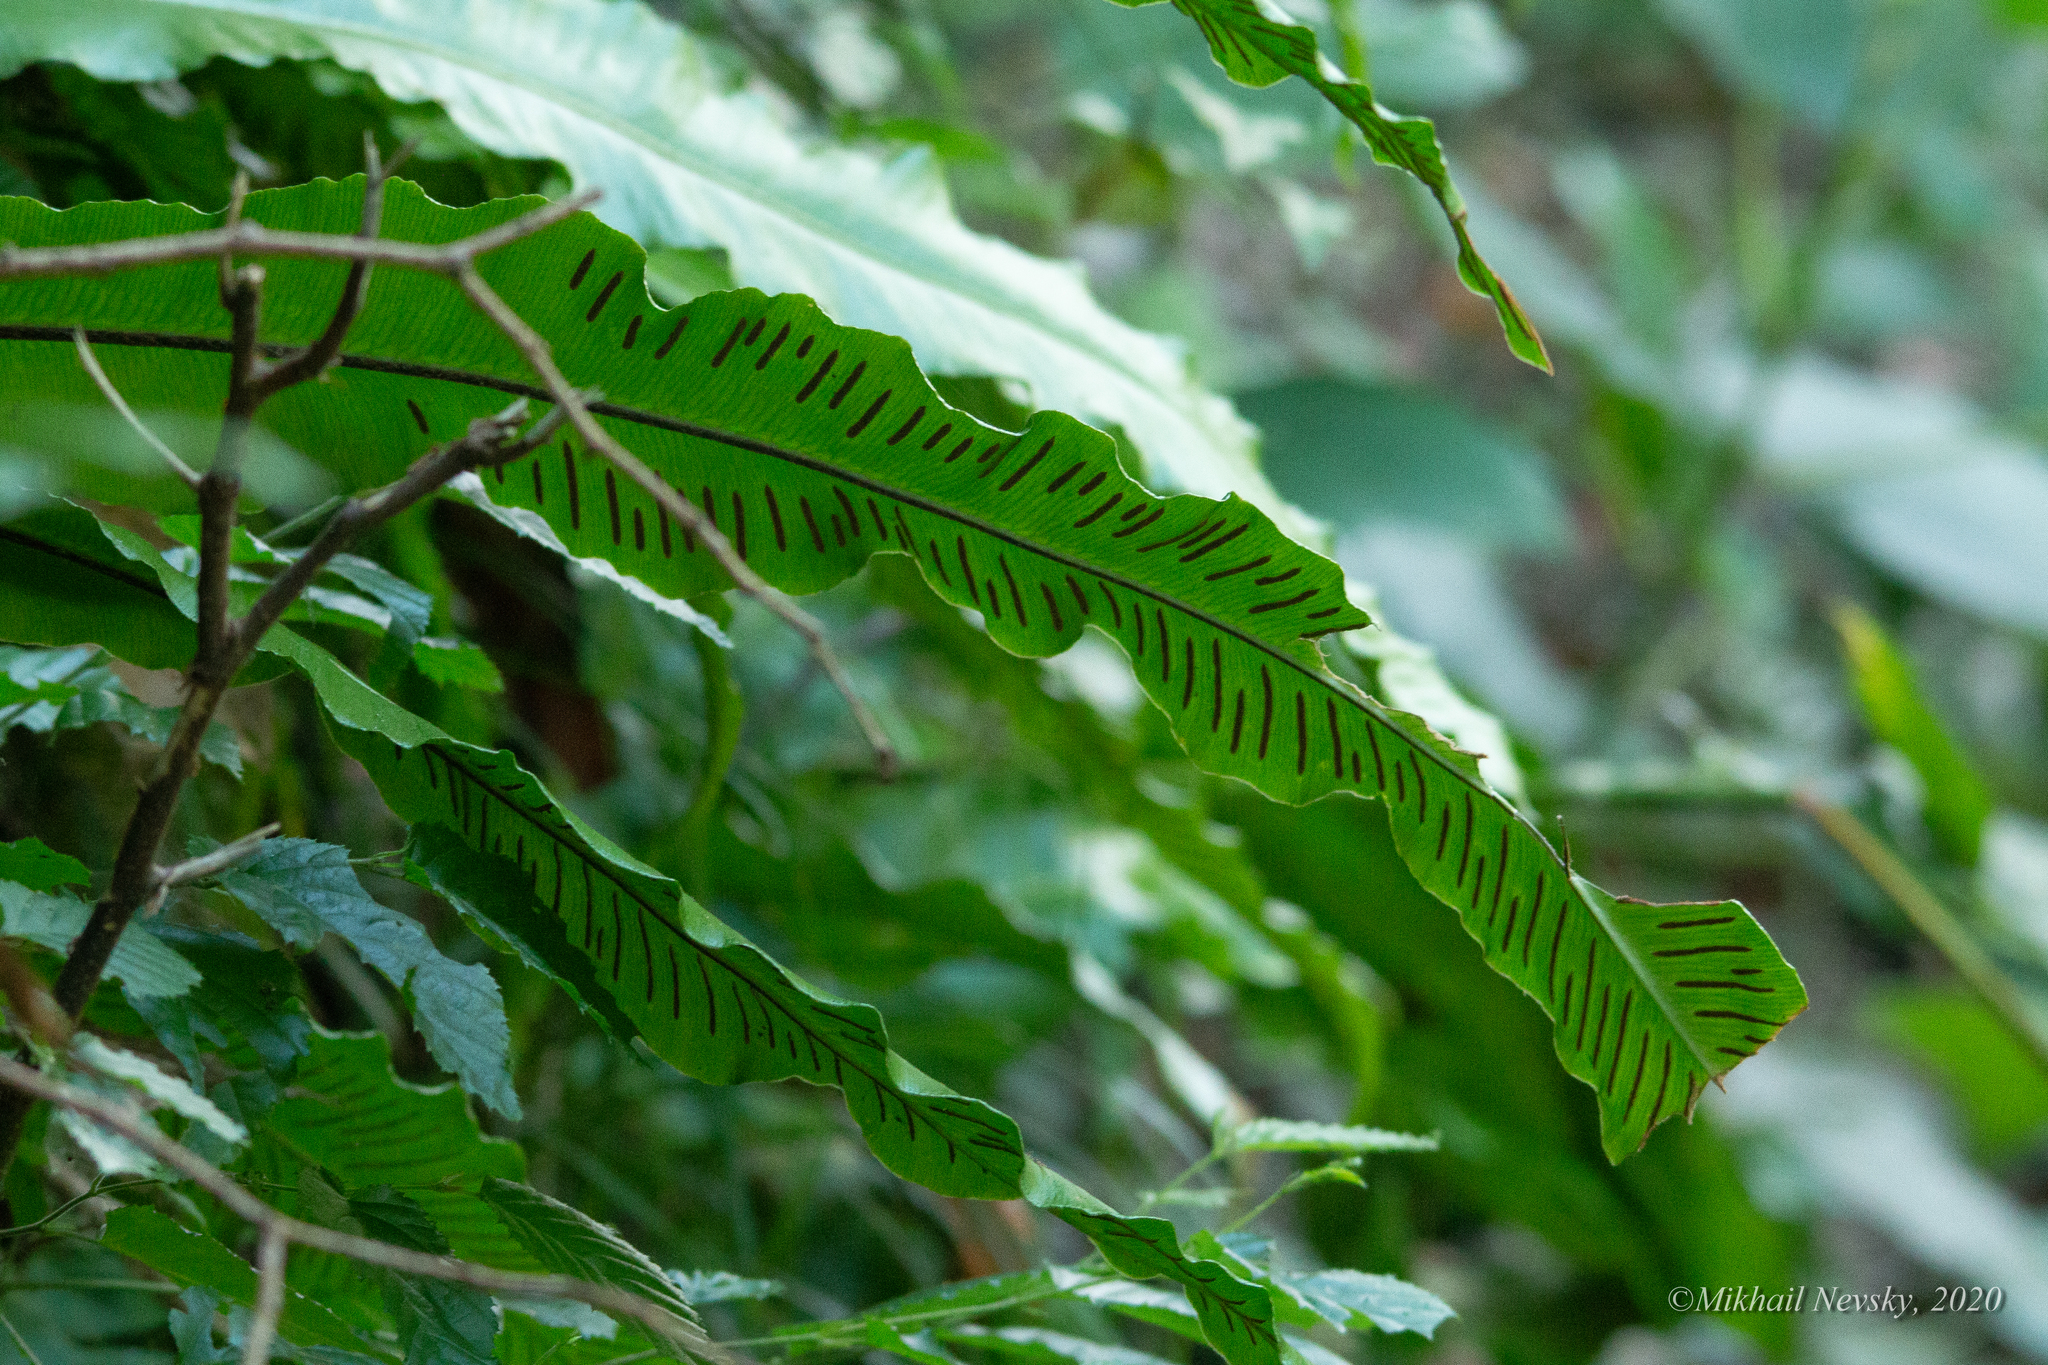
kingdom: Plantae
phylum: Tracheophyta
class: Polypodiopsida
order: Polypodiales
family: Aspleniaceae
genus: Asplenium
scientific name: Asplenium scolopendrium
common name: Hart's-tongue fern
